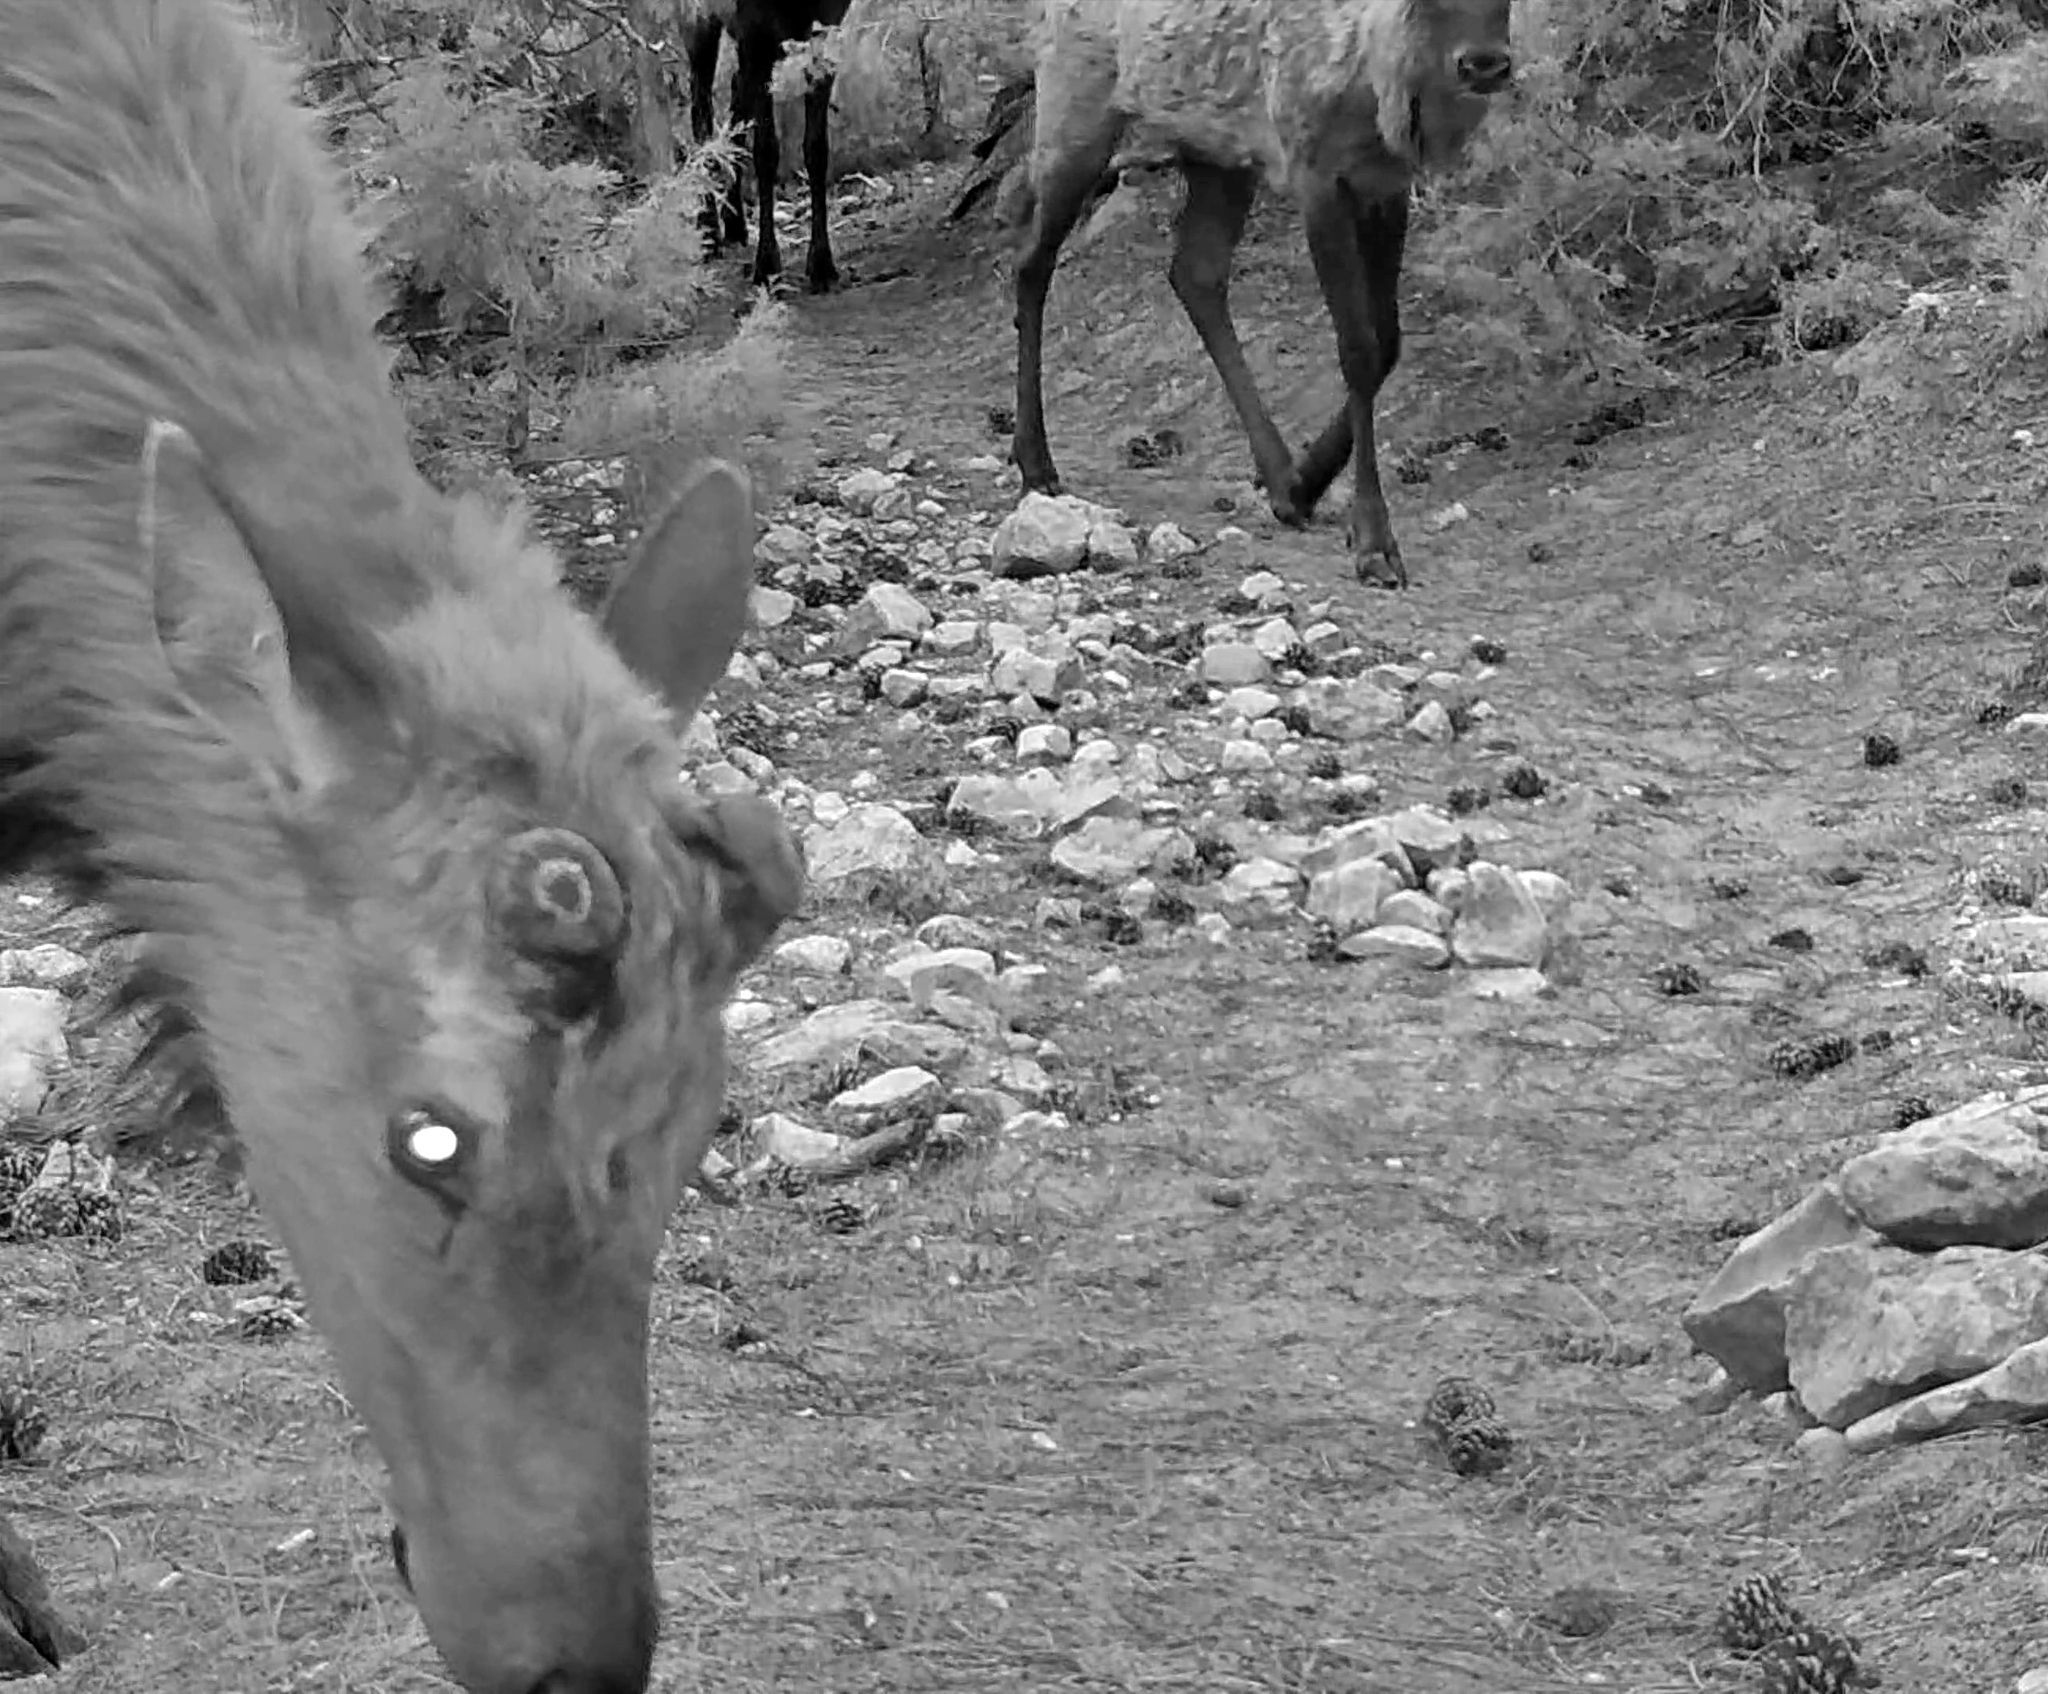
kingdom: Animalia
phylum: Chordata
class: Mammalia
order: Artiodactyla
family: Cervidae
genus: Cervus
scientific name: Cervus elaphus
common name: Red deer
